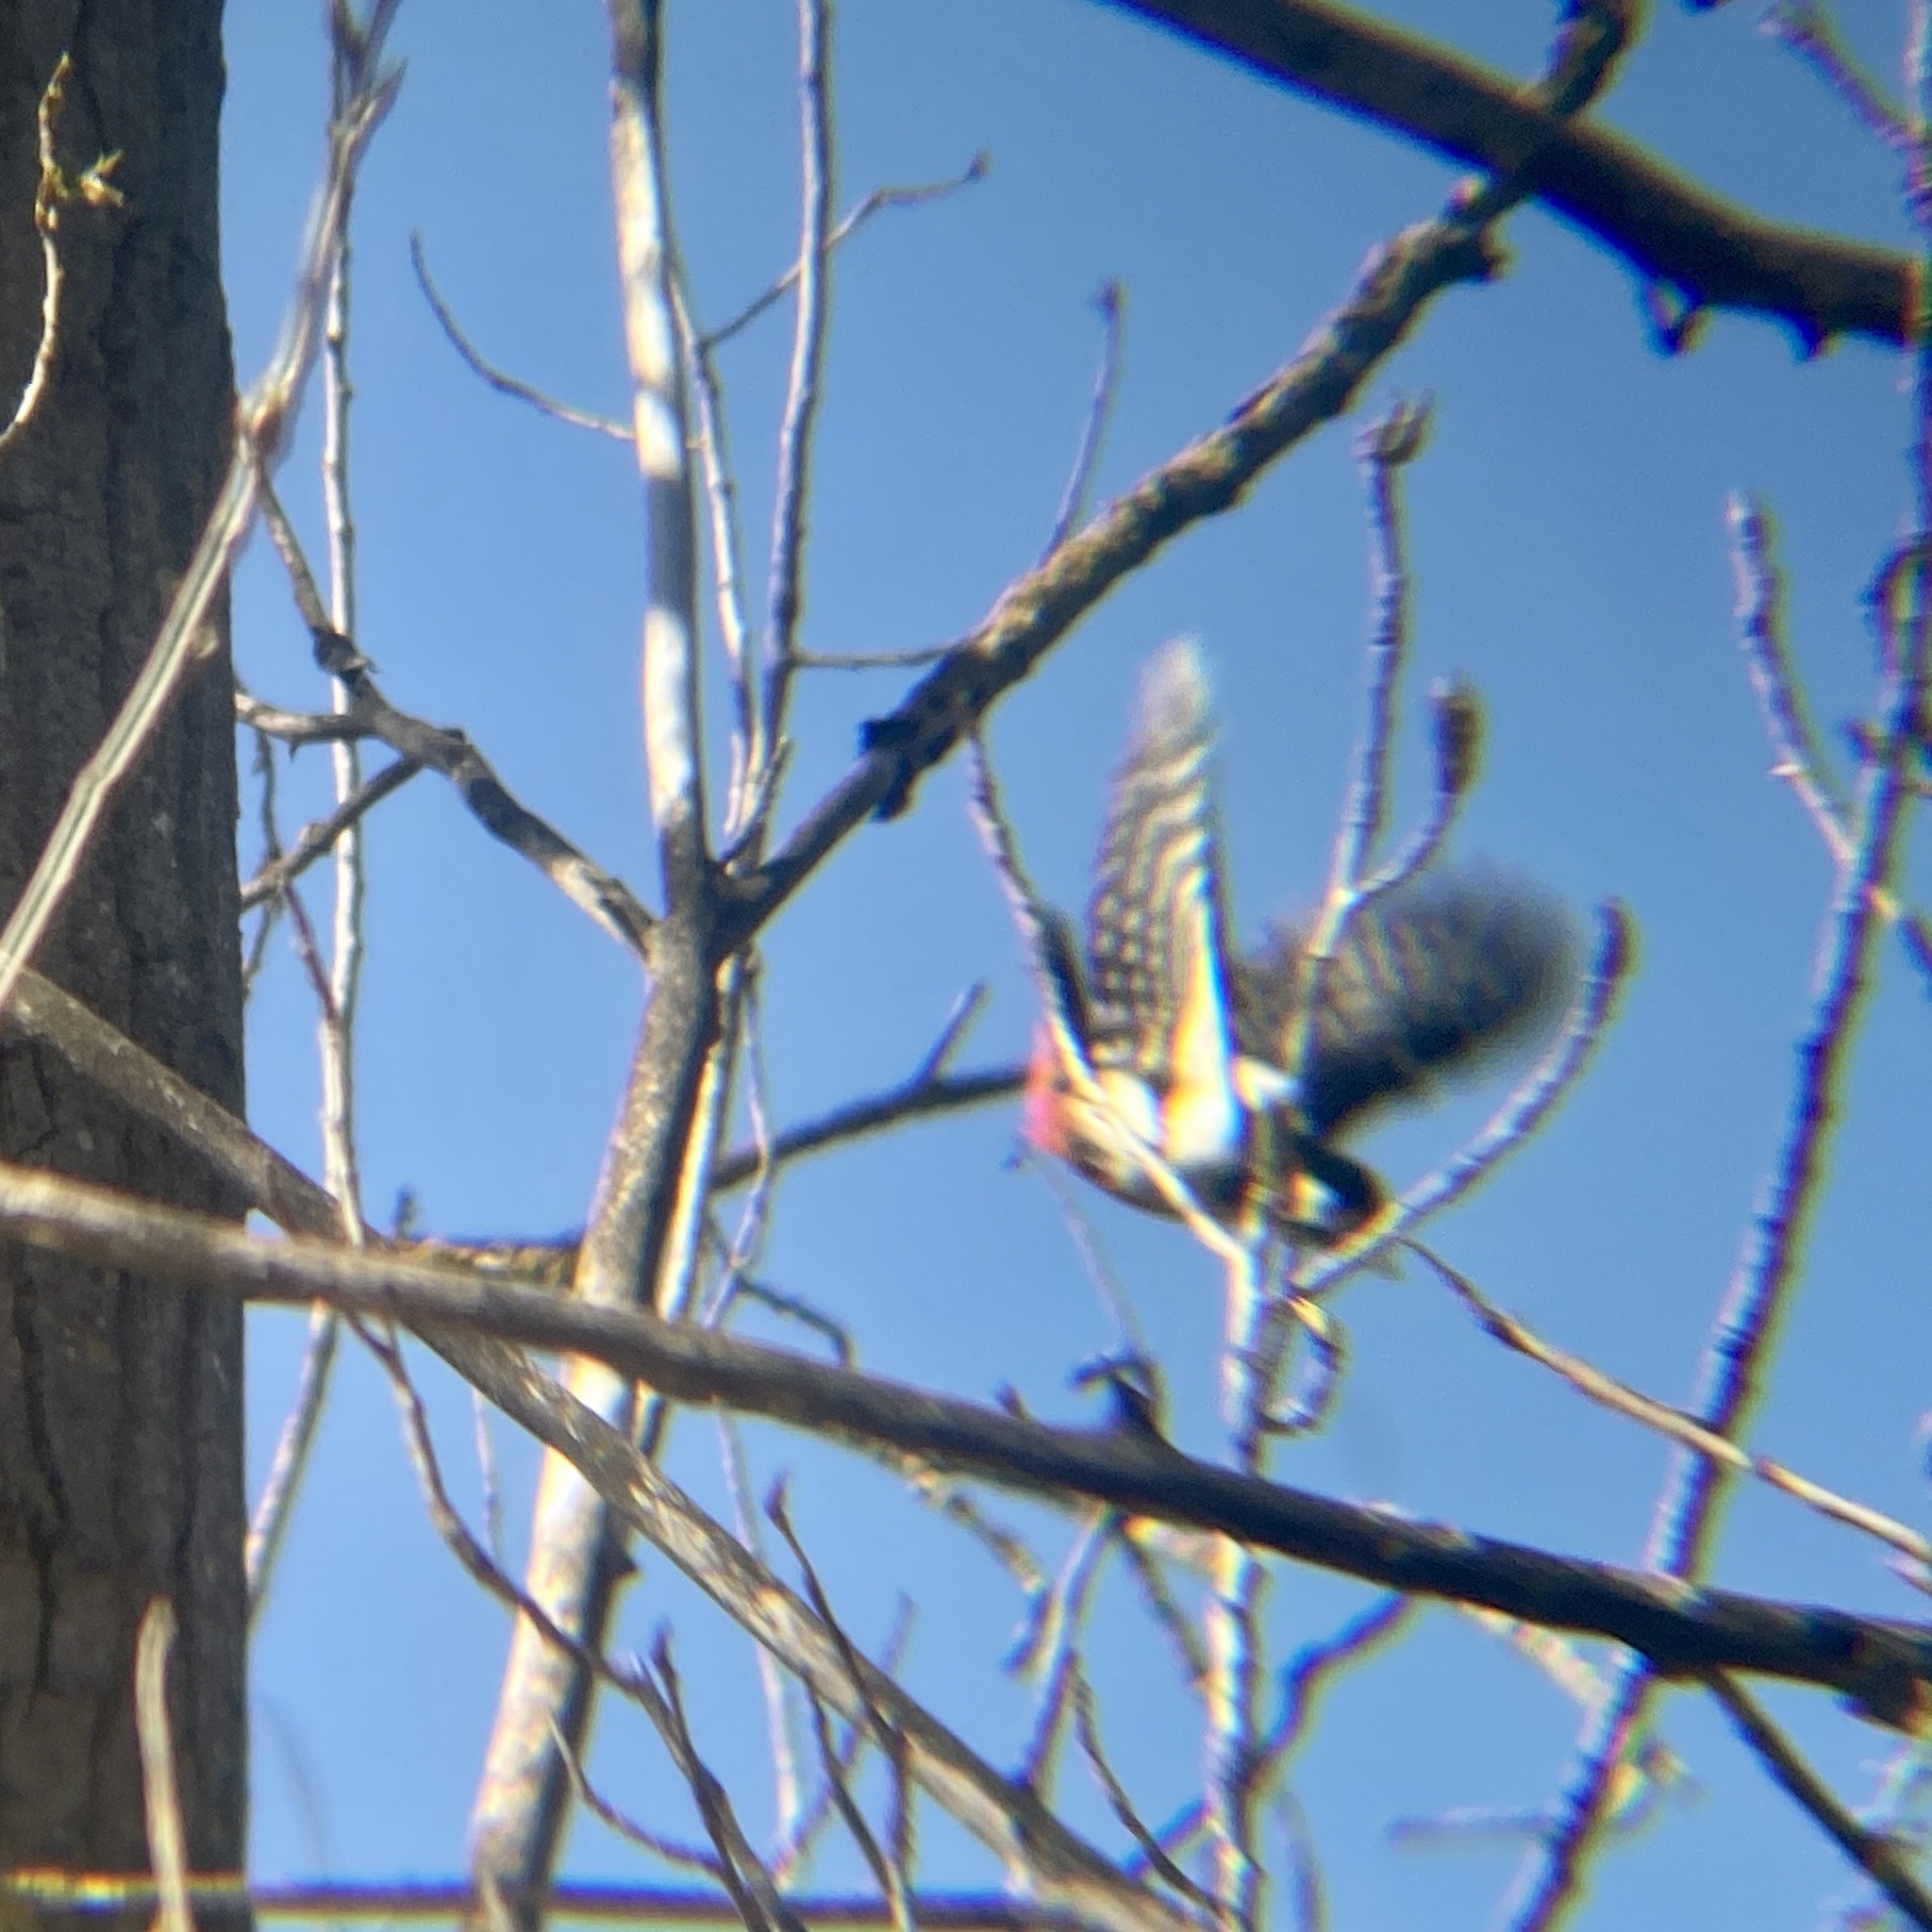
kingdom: Animalia
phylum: Chordata
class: Aves
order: Piciformes
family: Picidae
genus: Dendrocopos
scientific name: Dendrocopos major
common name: Great spotted woodpecker
